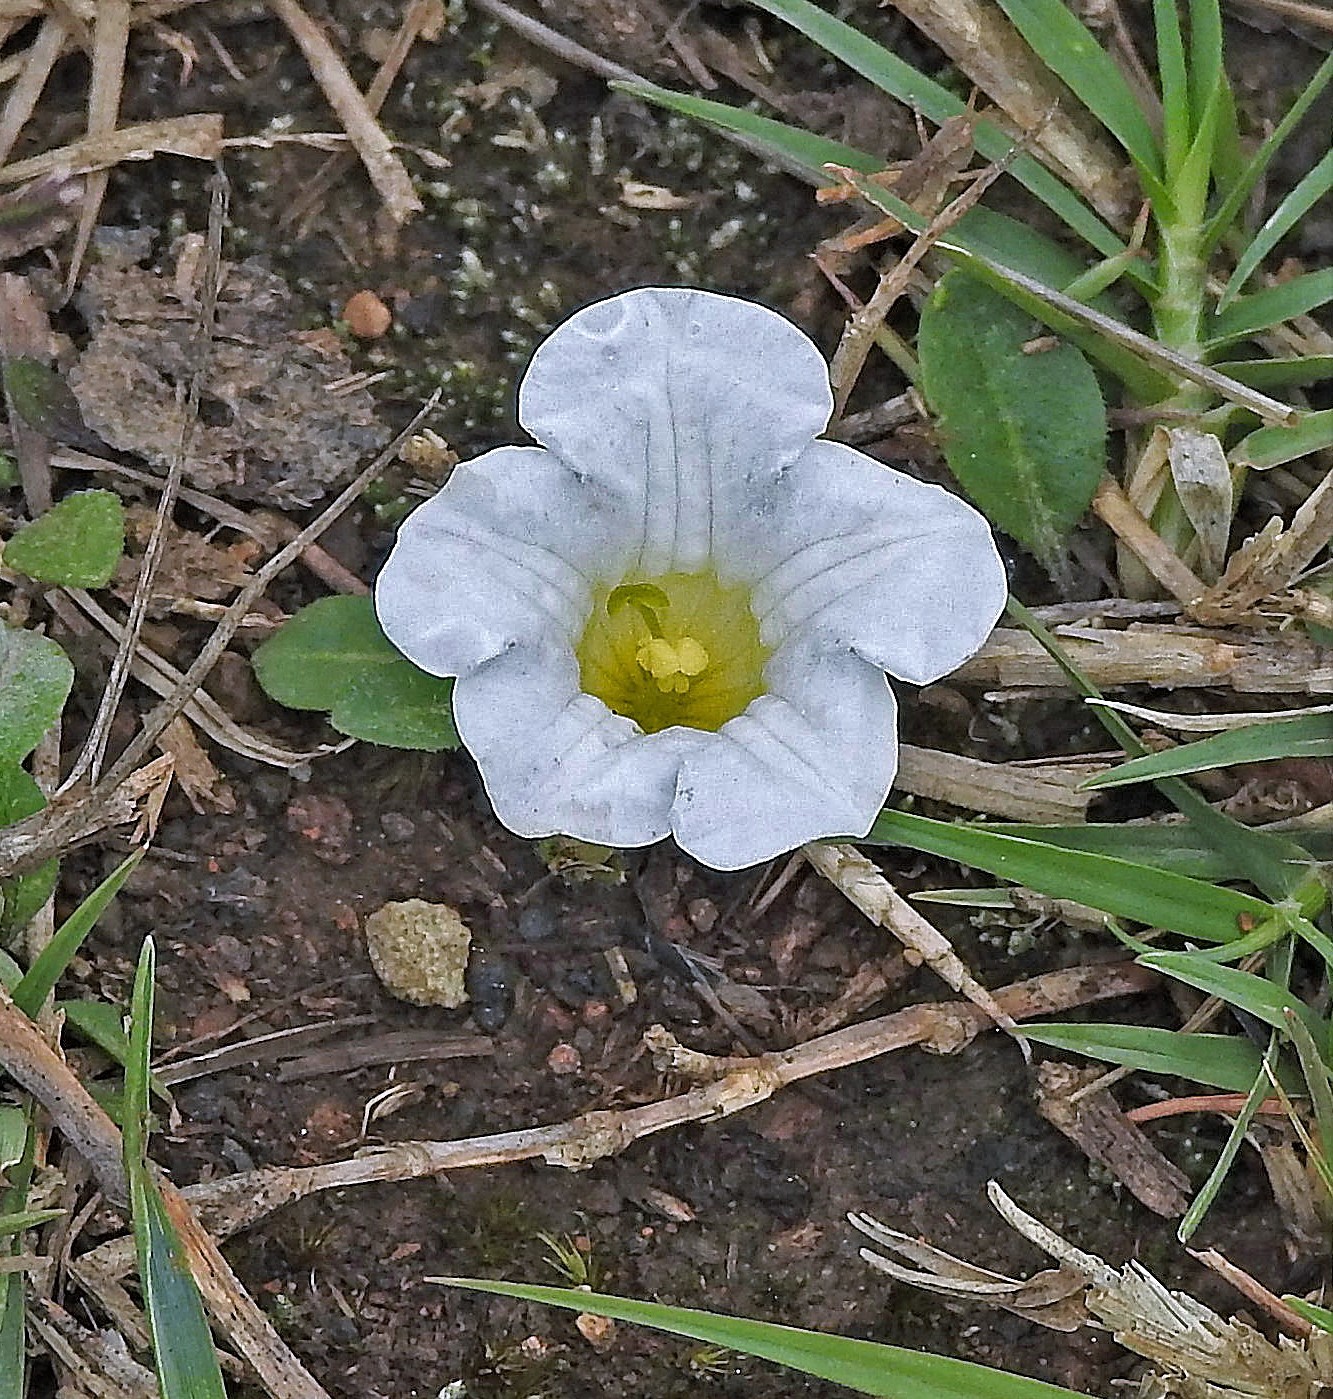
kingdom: Plantae
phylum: Tracheophyta
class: Magnoliopsida
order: Solanales
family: Solanaceae
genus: Nierembergia
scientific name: Nierembergia repens
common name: Whitecup
